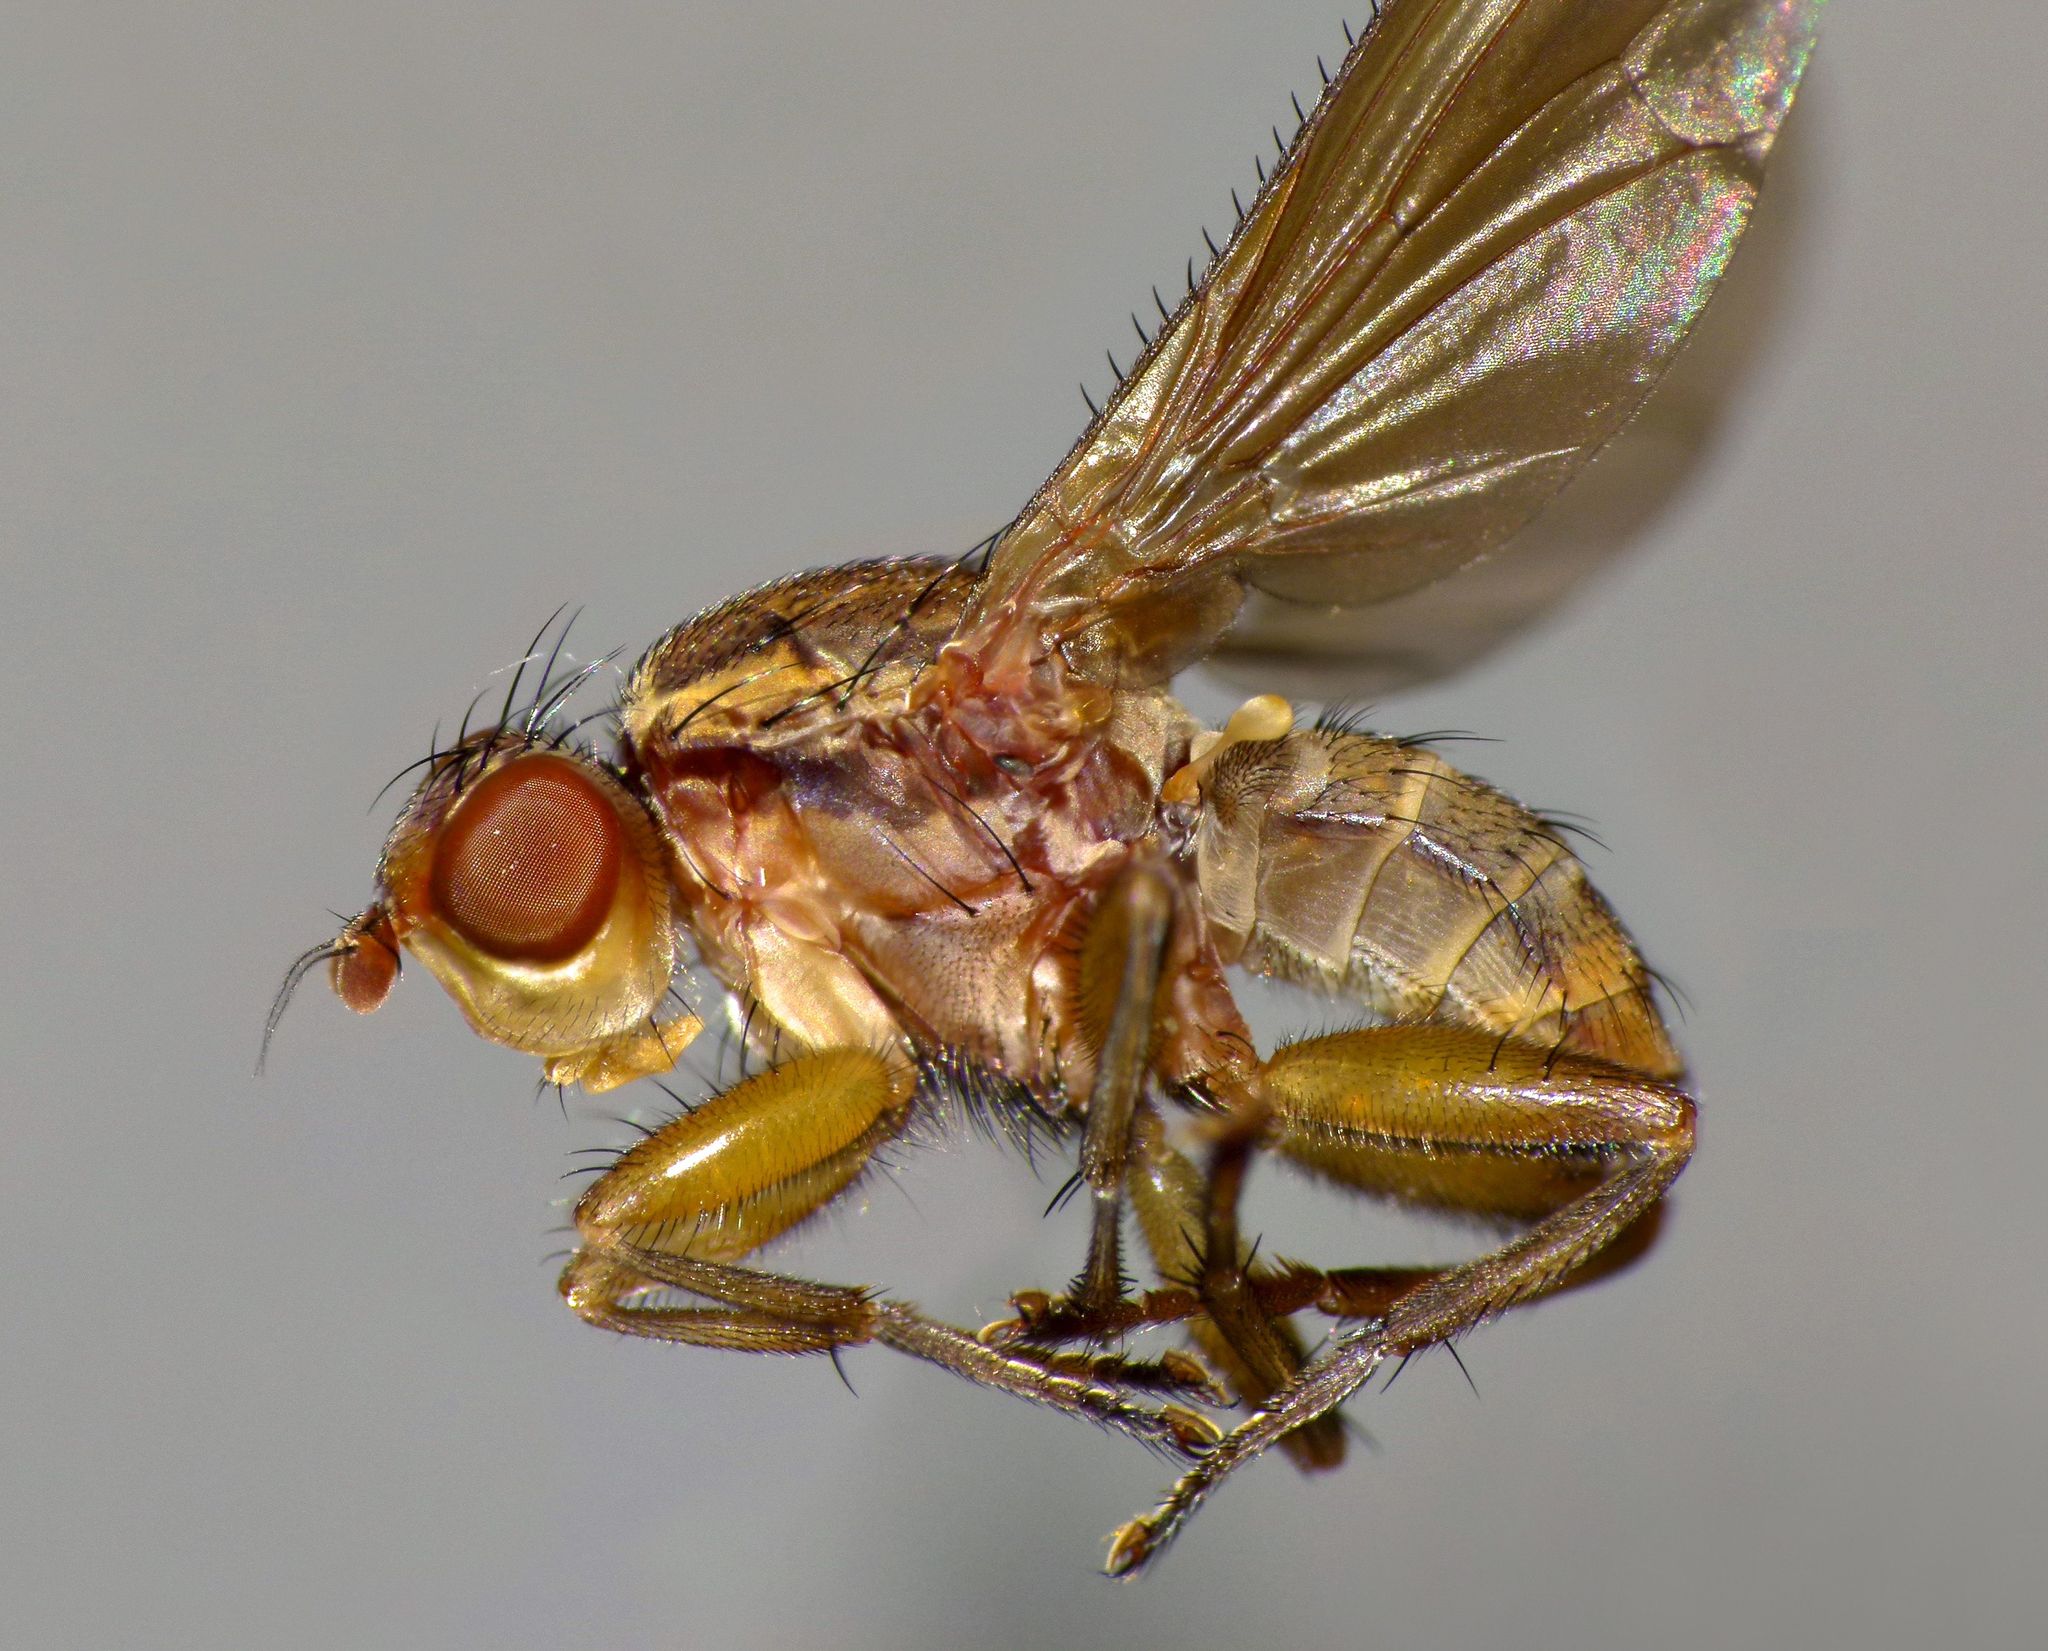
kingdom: Animalia
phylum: Arthropoda
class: Insecta
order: Diptera
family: Helosciomyzidae
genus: Napaeosciomyza
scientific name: Napaeosciomyza spinicosta
